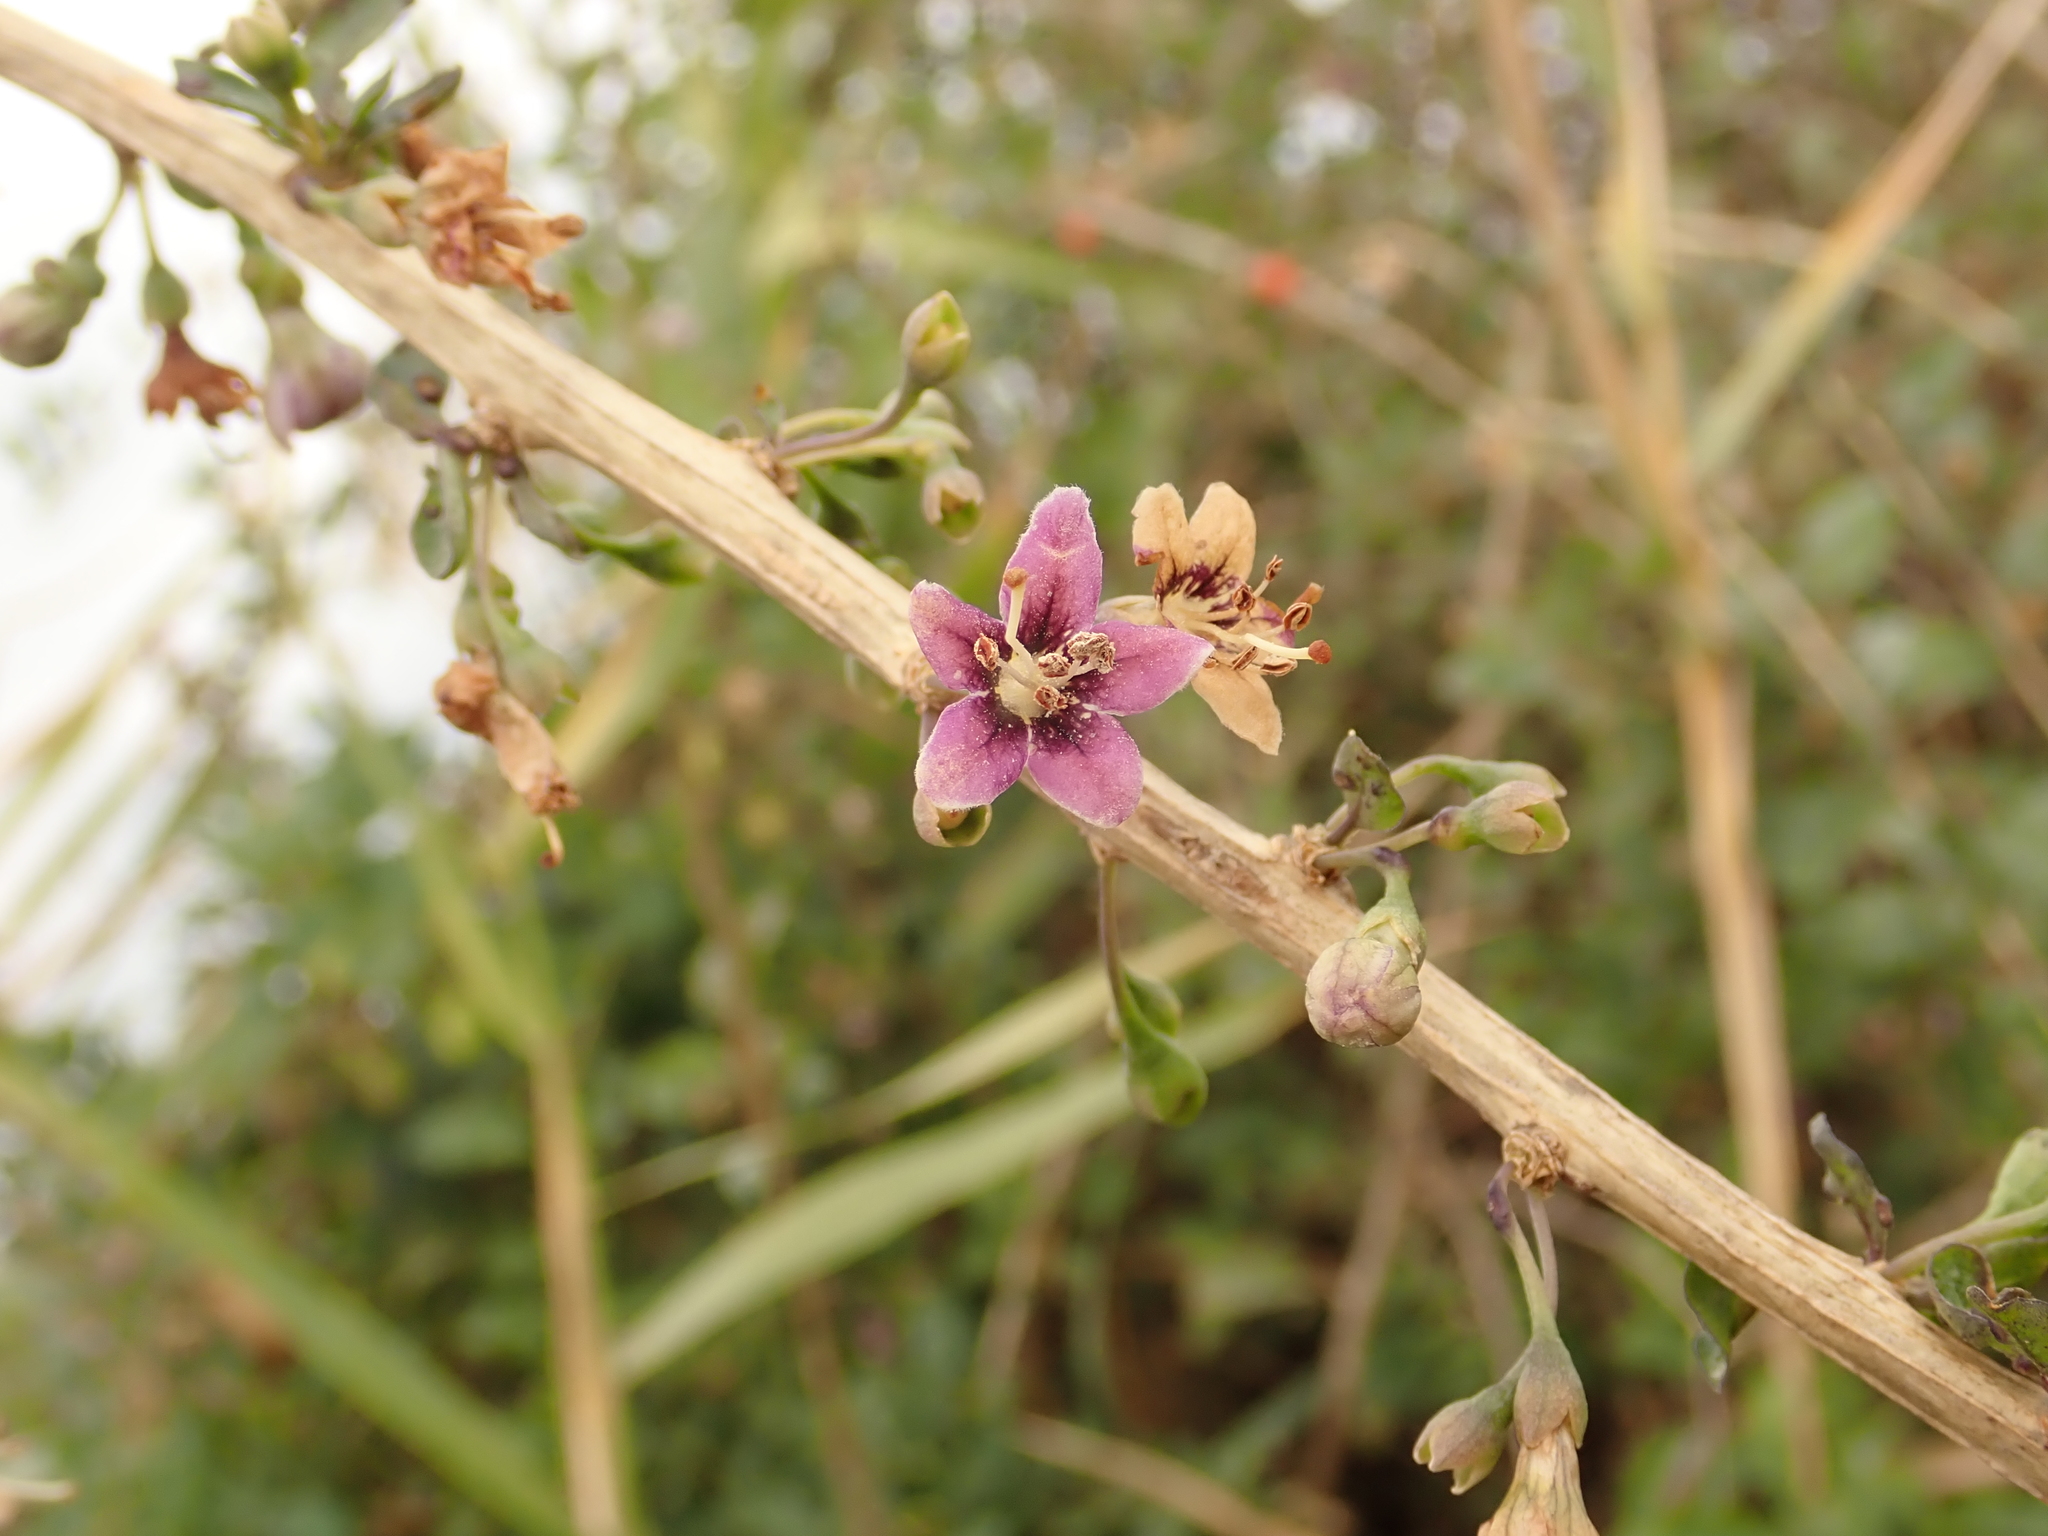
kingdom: Plantae
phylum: Tracheophyta
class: Magnoliopsida
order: Solanales
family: Solanaceae
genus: Lycium
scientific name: Lycium barbarum
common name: Duke of argyll's teaplant
